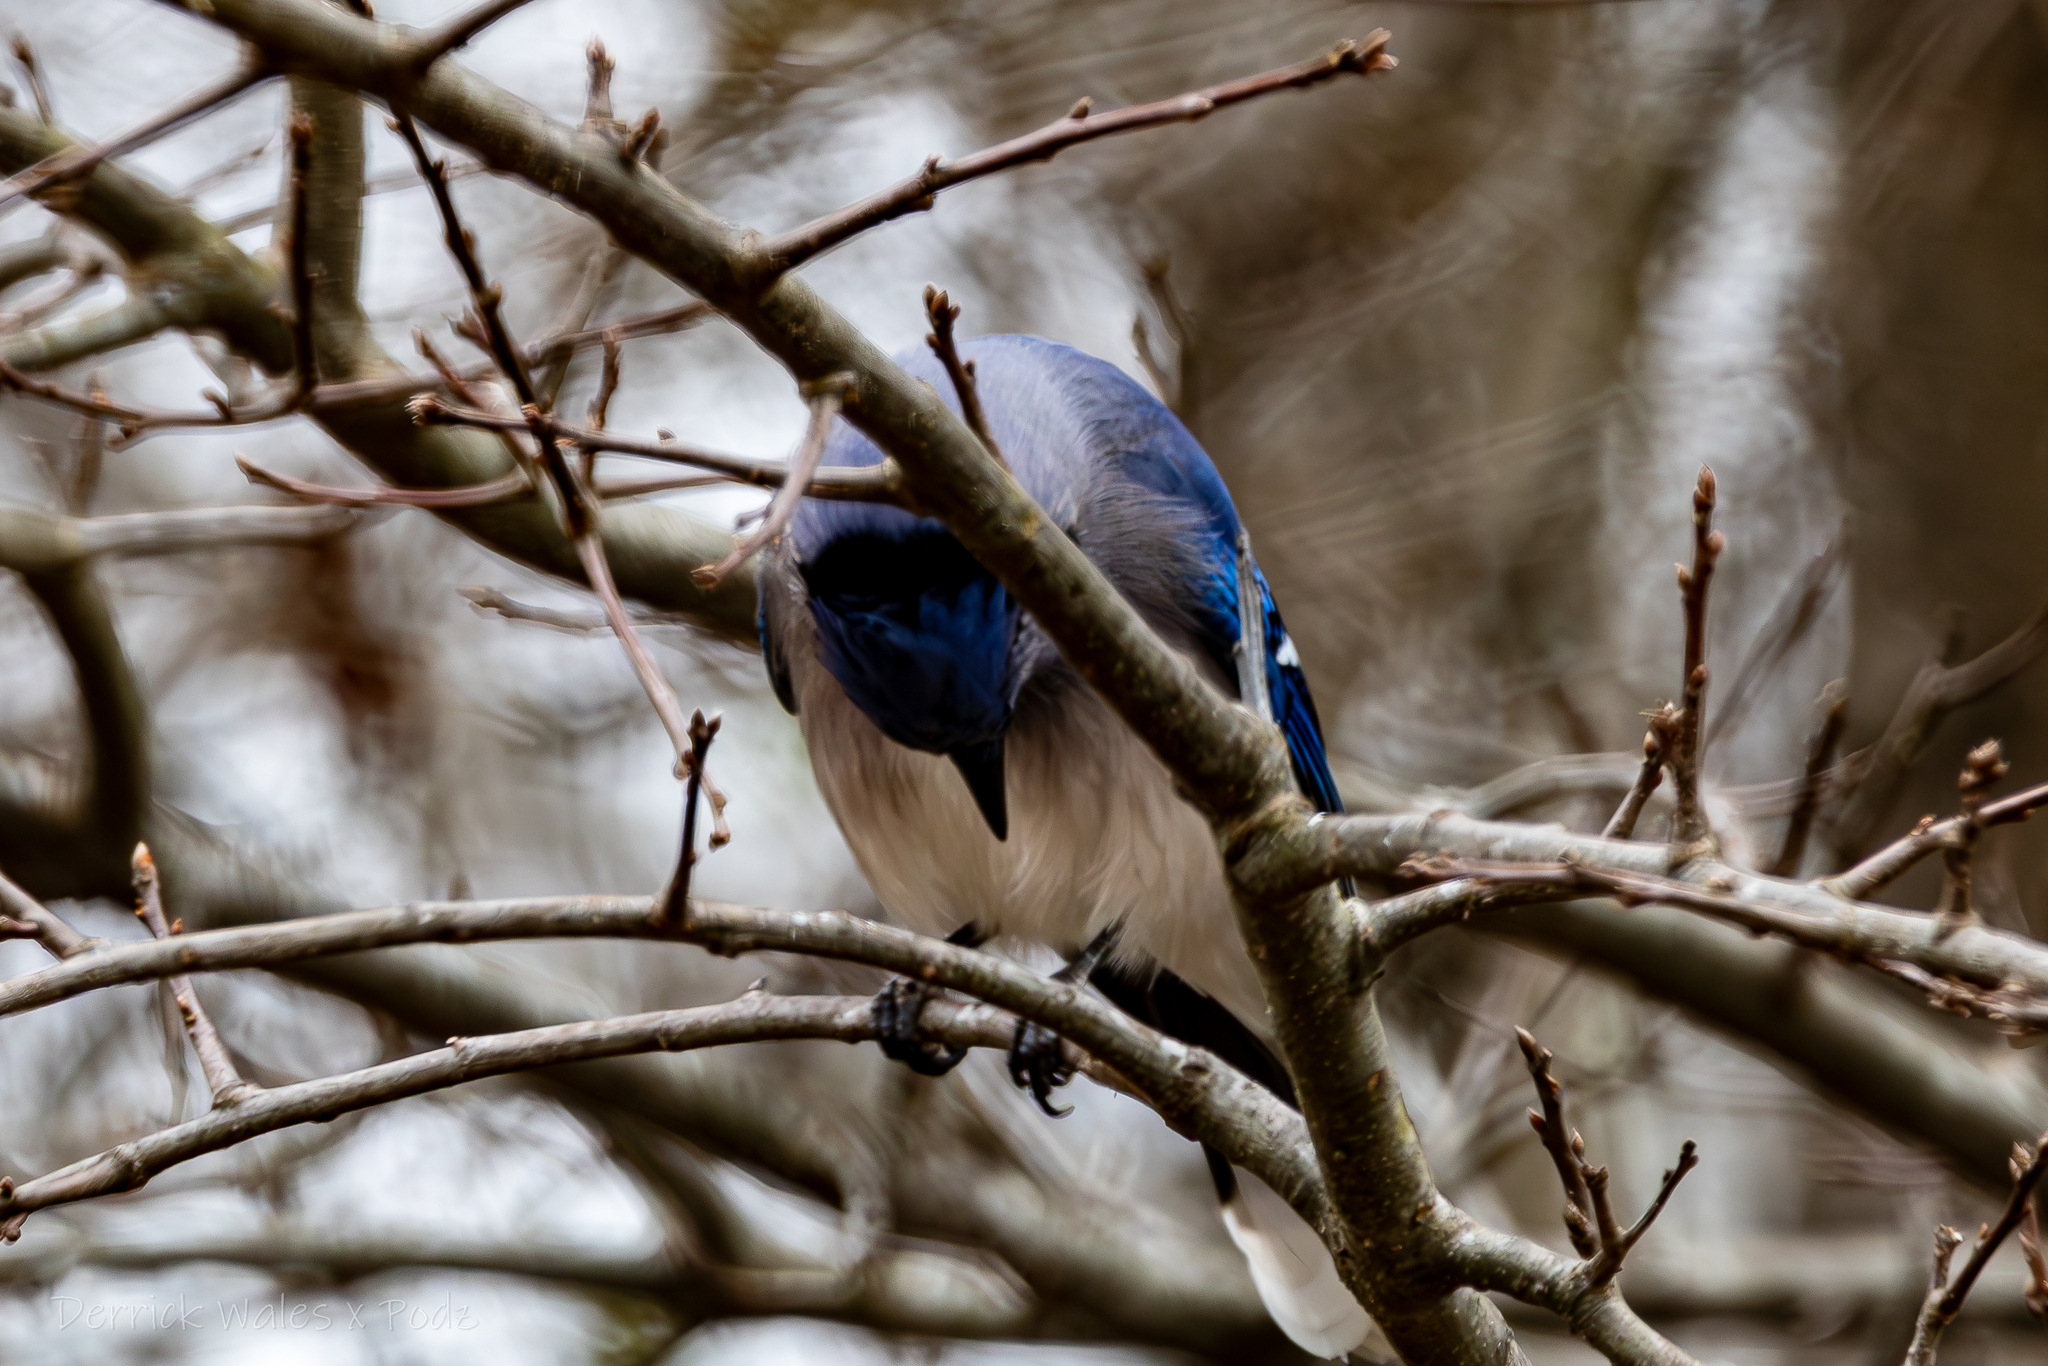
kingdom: Animalia
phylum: Chordata
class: Aves
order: Passeriformes
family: Corvidae
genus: Cyanocitta
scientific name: Cyanocitta cristata
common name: Blue jay
